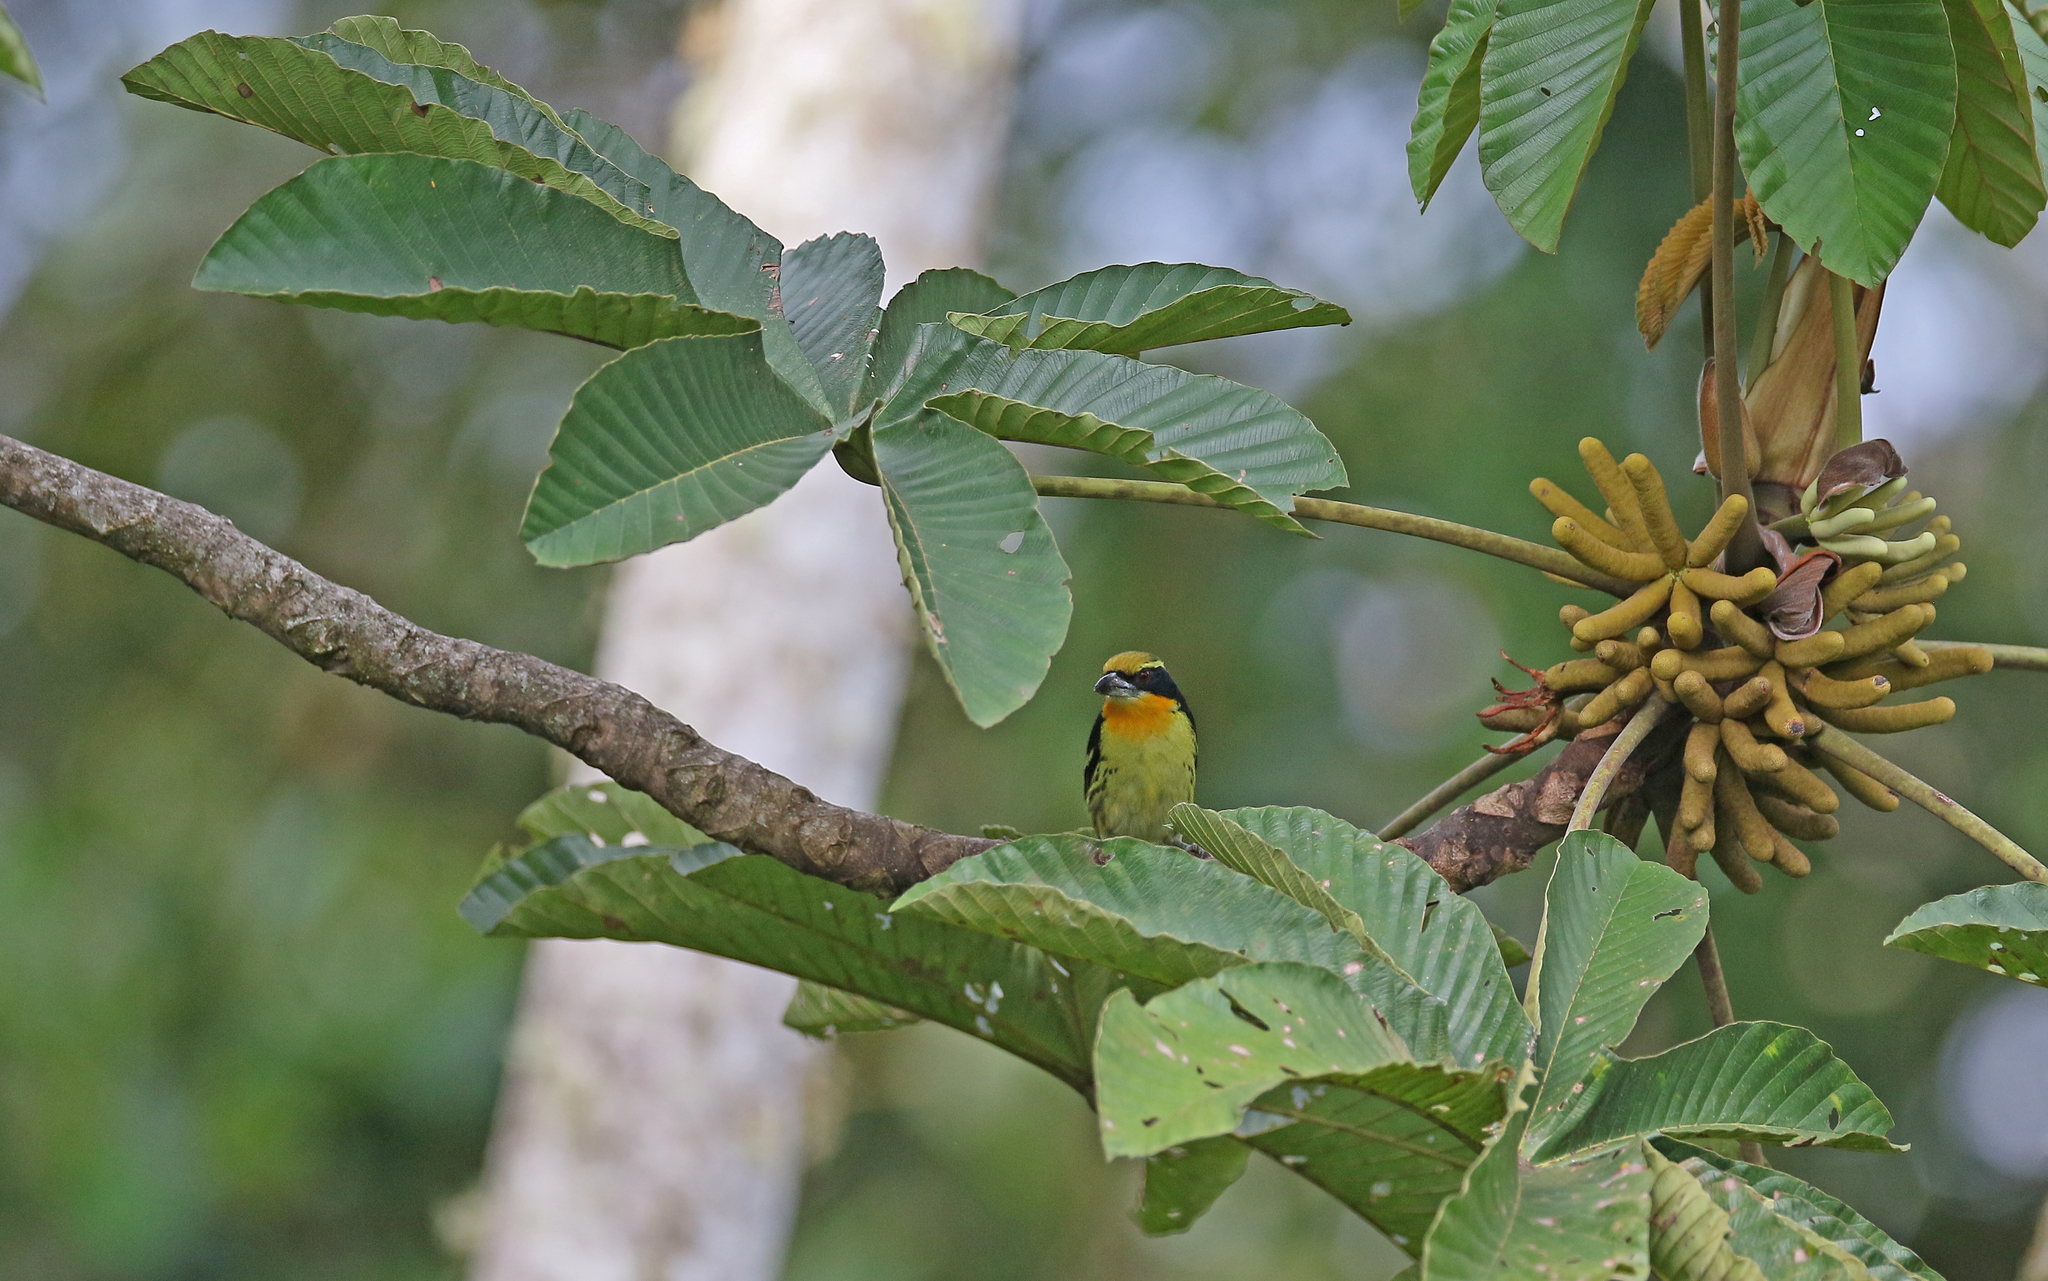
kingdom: Animalia
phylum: Chordata
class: Aves
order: Piciformes
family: Capitonidae
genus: Capito
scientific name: Capito auratus
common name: Gilded barbet
